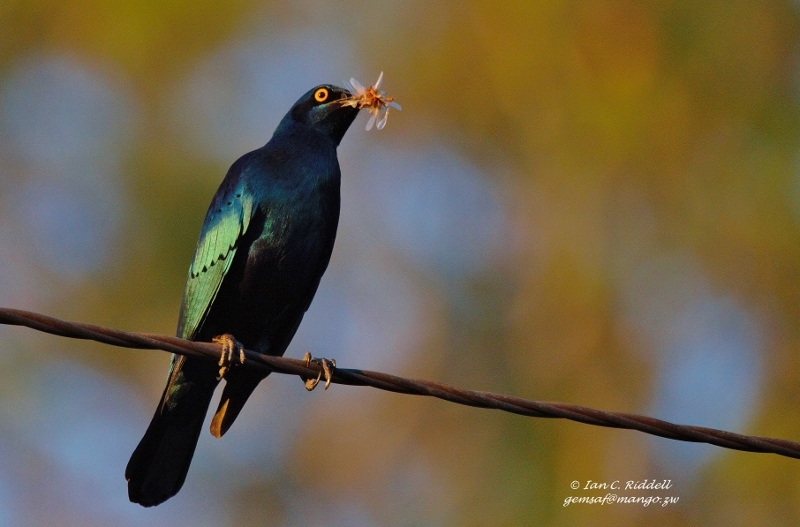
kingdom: Animalia
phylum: Chordata
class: Aves
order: Passeriformes
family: Sturnidae
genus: Lamprotornis
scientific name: Lamprotornis chalybaeus
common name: Greater blue-eared starling
